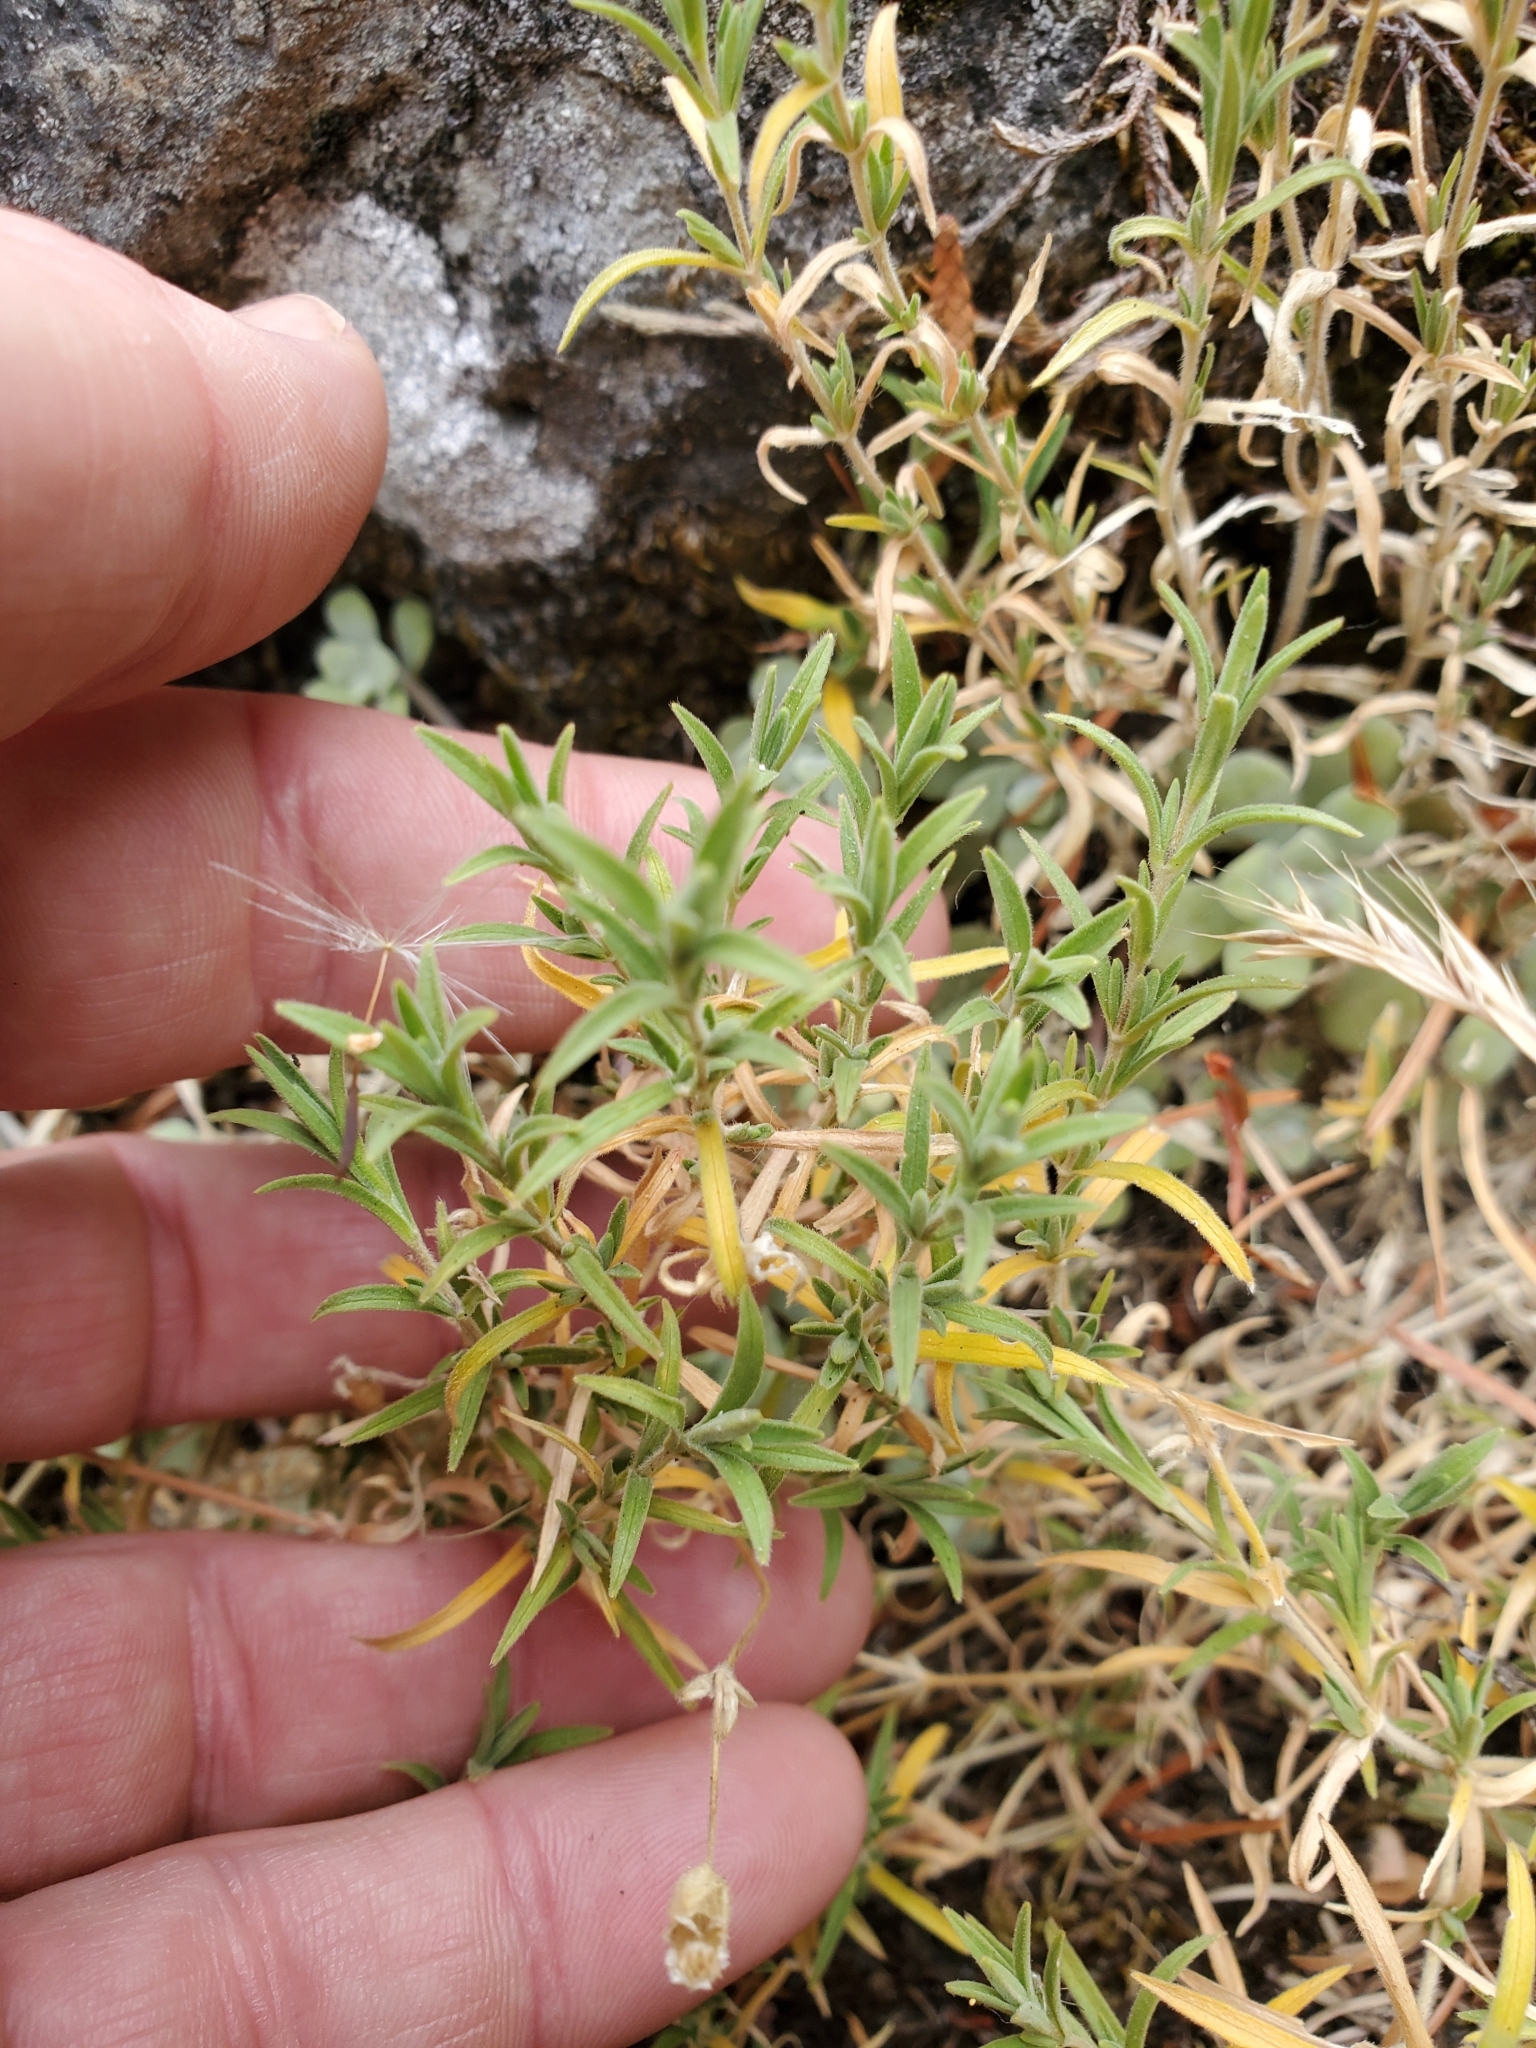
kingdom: Plantae
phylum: Tracheophyta
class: Magnoliopsida
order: Caryophyllales
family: Caryophyllaceae
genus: Cerastium
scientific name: Cerastium arvense
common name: Field mouse-ear
